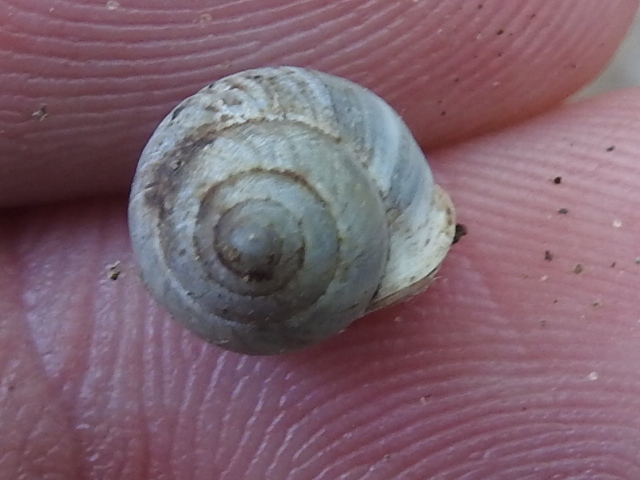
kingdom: Animalia
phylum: Mollusca
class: Gastropoda
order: Cycloneritida
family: Helicinidae
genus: Helicina
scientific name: Helicina orbiculata
